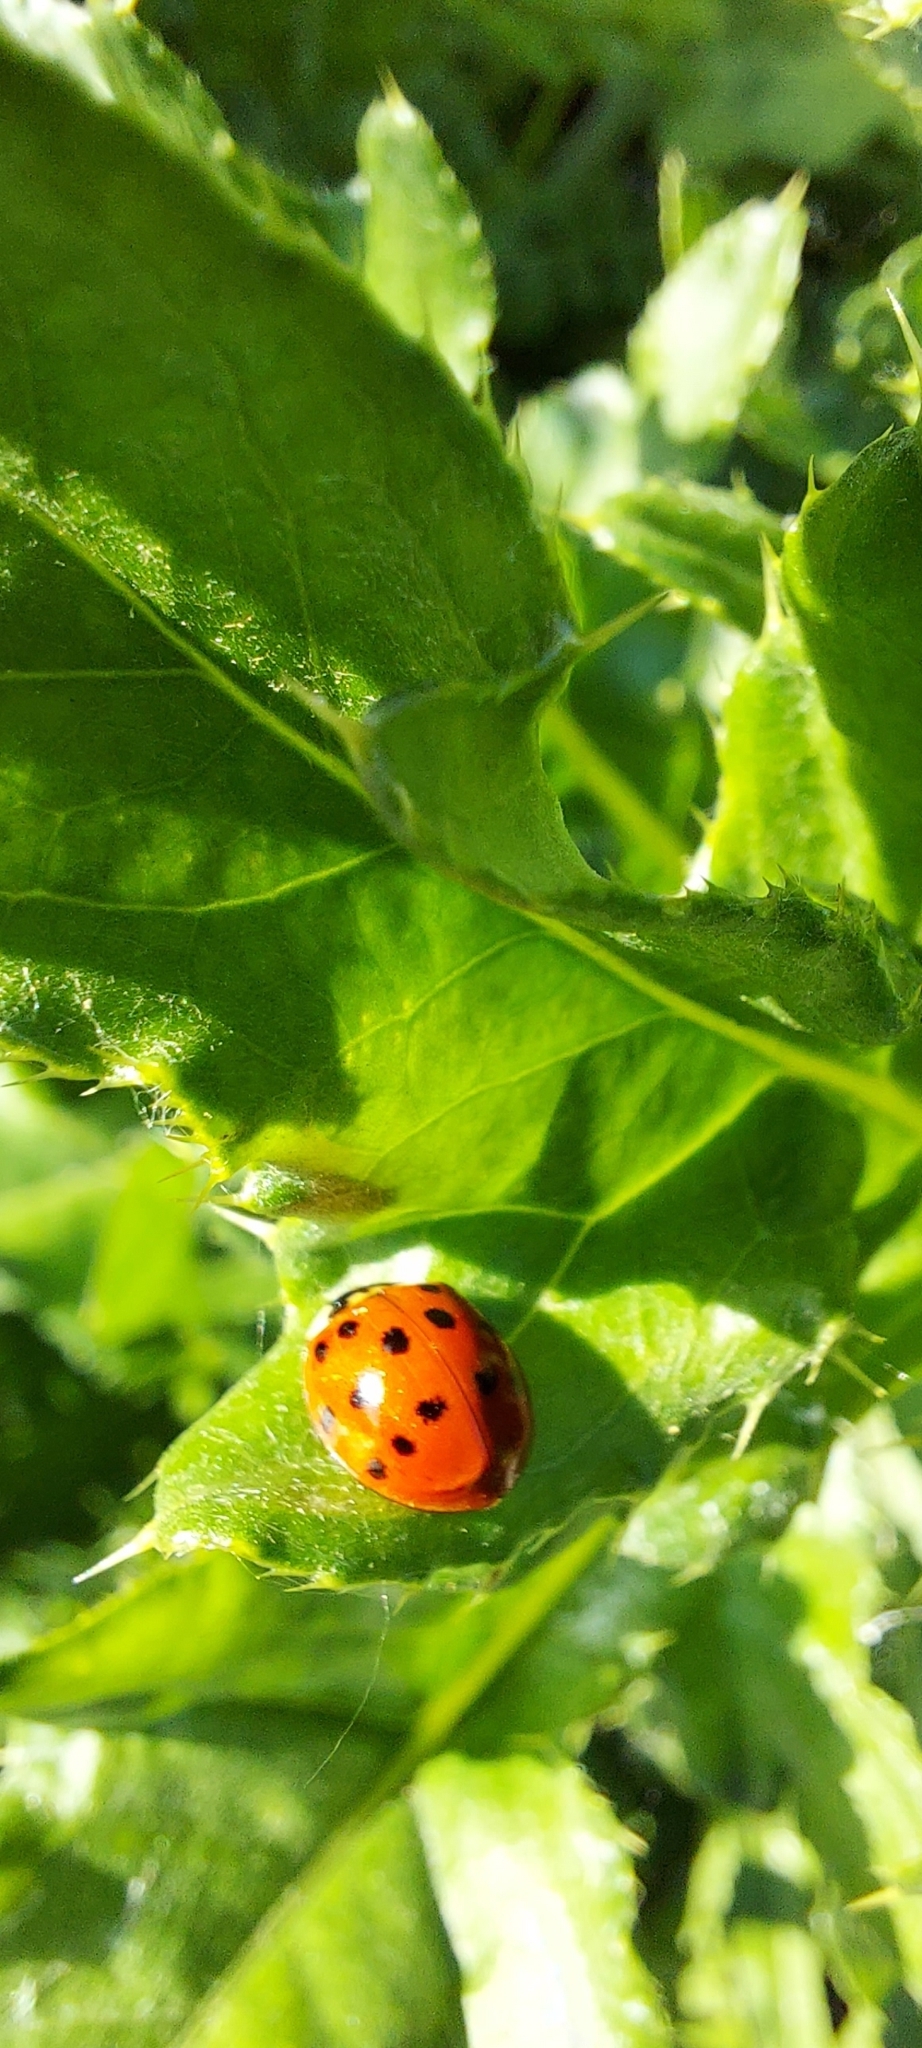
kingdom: Animalia
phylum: Arthropoda
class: Insecta
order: Coleoptera
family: Coccinellidae
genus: Harmonia
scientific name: Harmonia axyridis
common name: Harlequin ladybird
